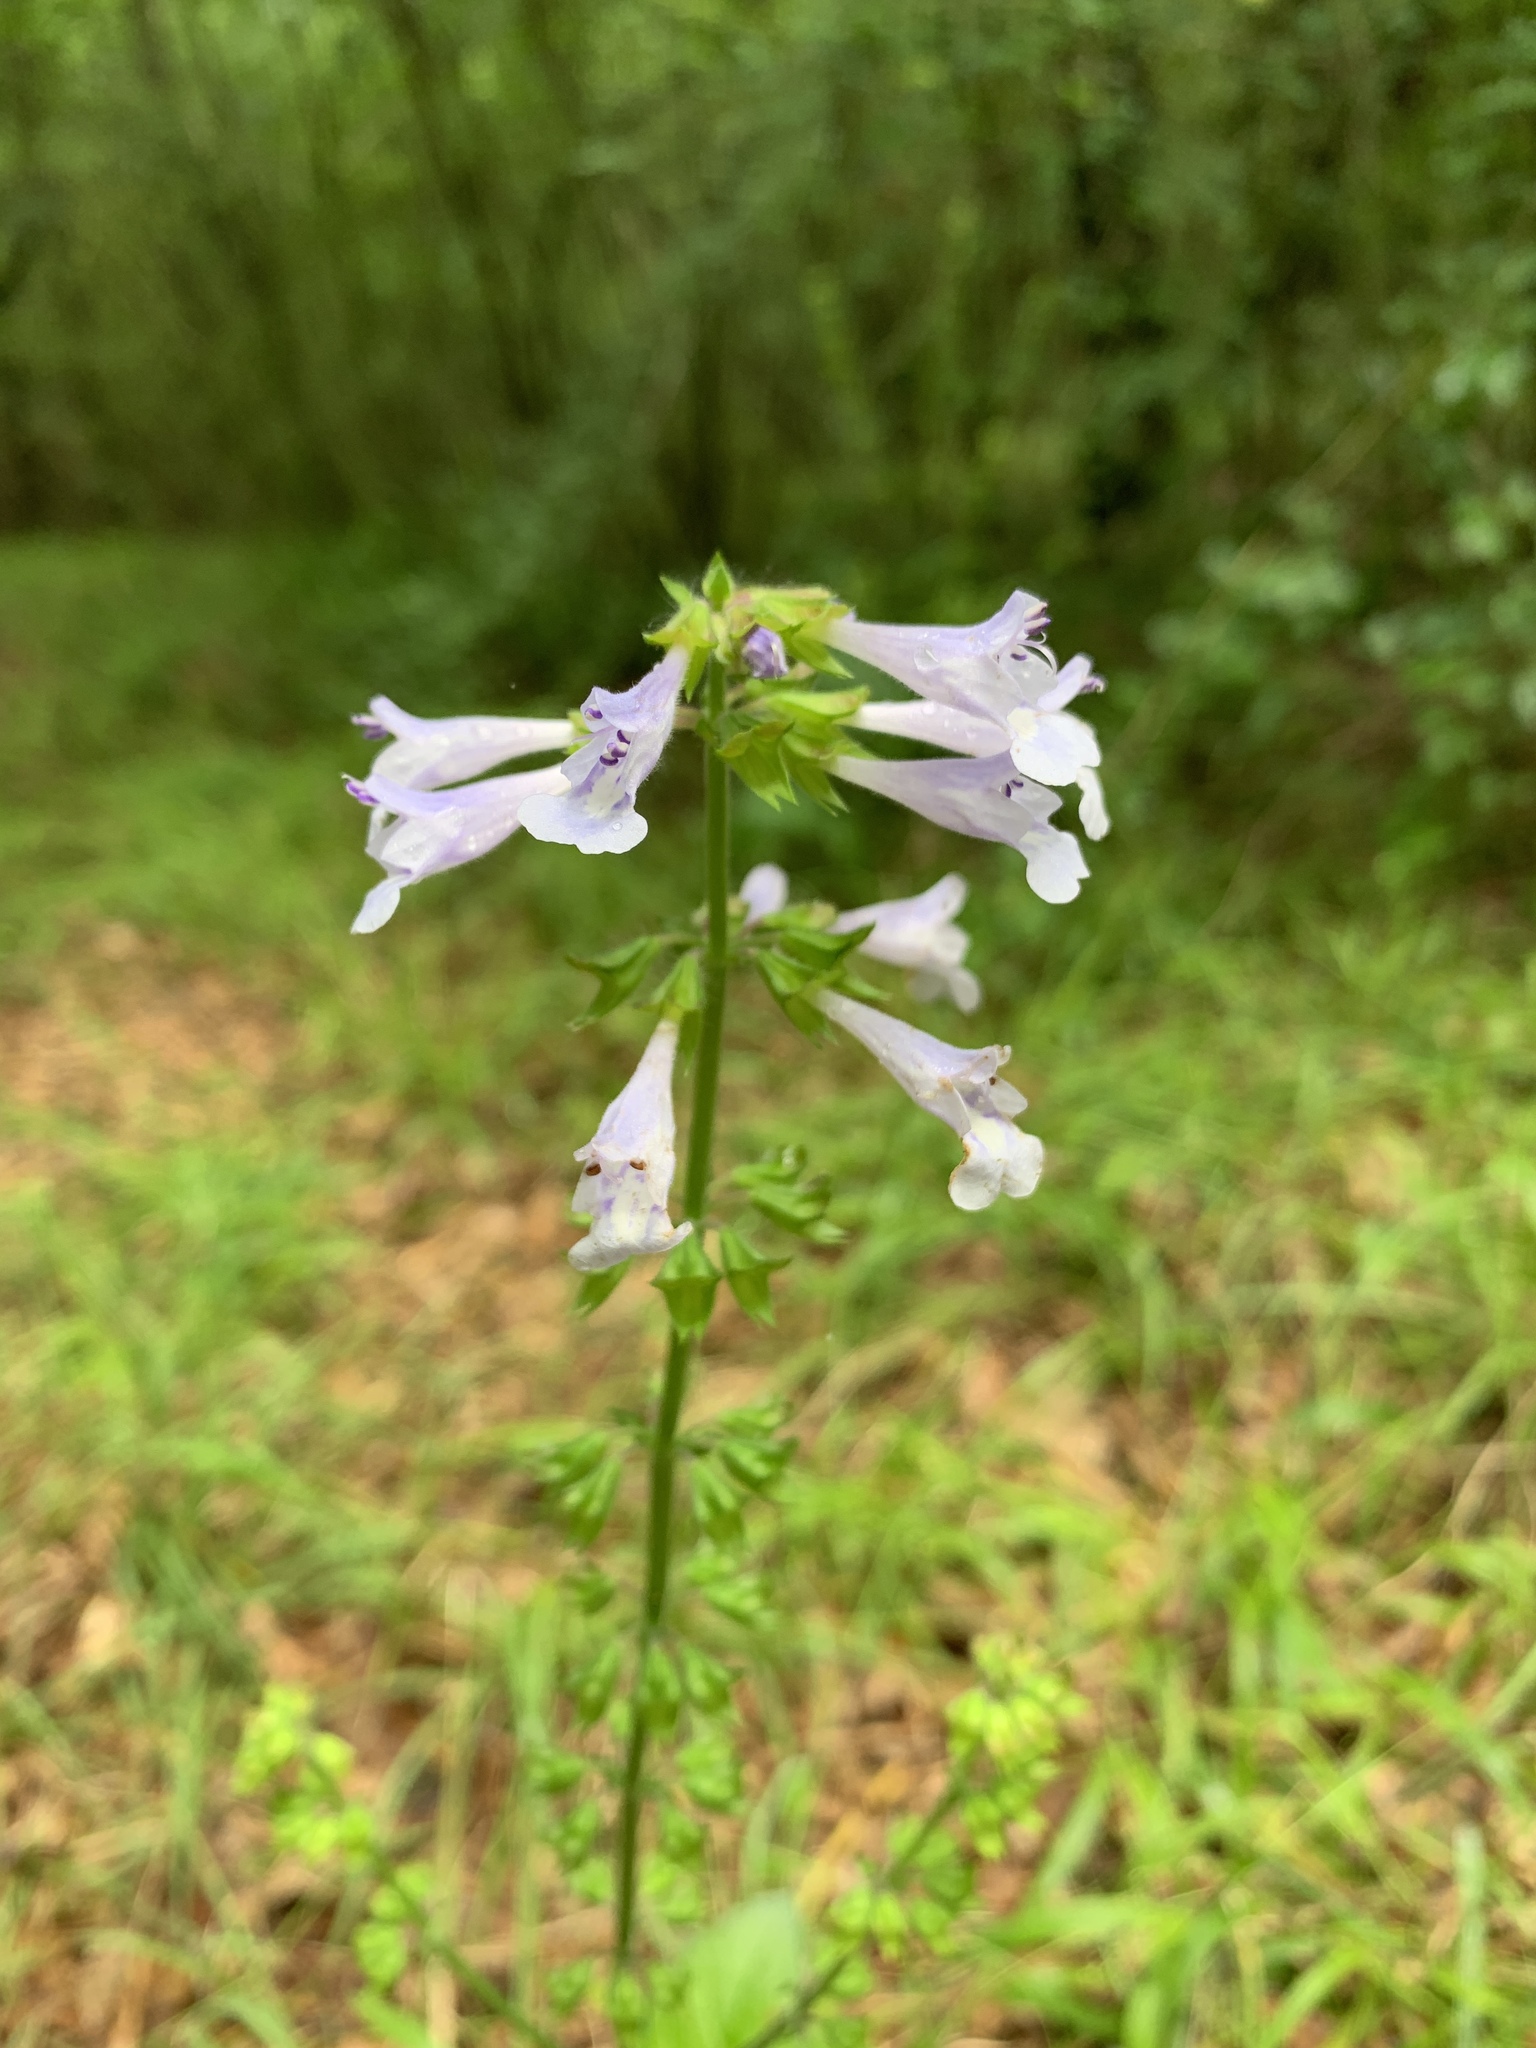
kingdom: Plantae
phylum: Tracheophyta
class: Magnoliopsida
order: Lamiales
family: Lamiaceae
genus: Salvia
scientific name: Salvia lyrata
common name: Cancerweed
